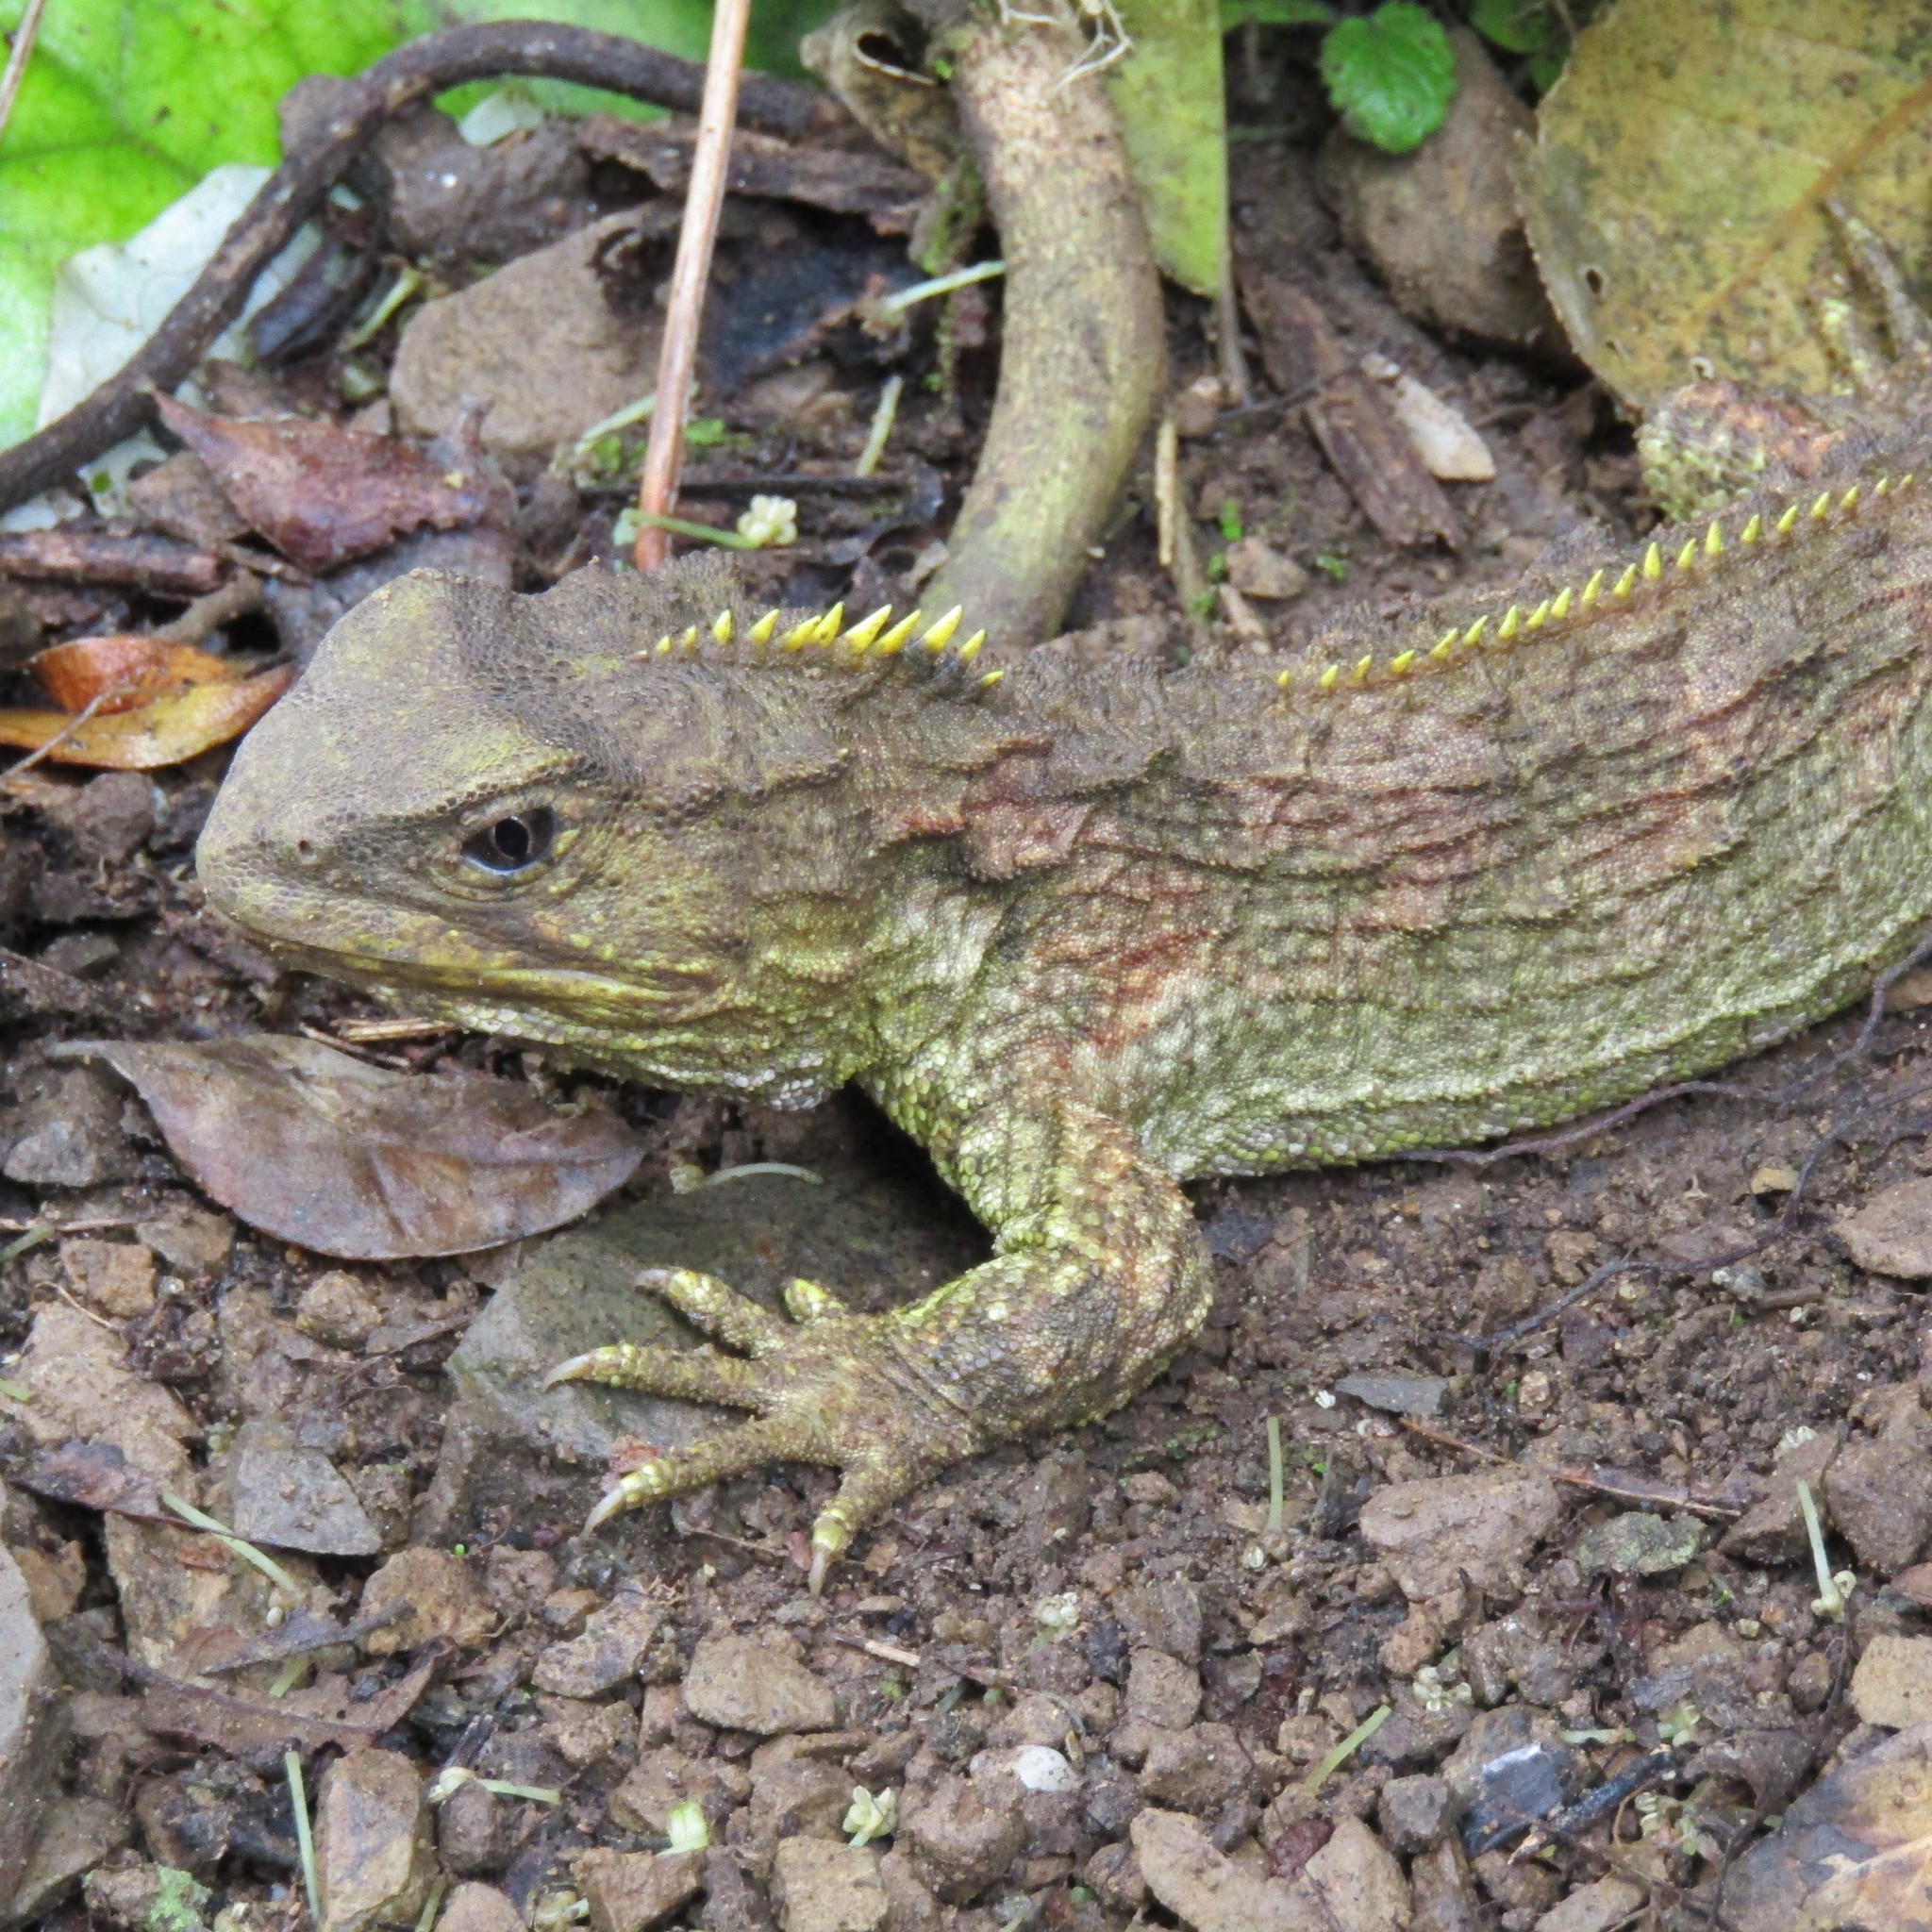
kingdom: Animalia
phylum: Chordata
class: Sphenodontia
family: Sphenodontidae
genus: Sphenodon
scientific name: Sphenodon punctatus
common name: Tuatara
